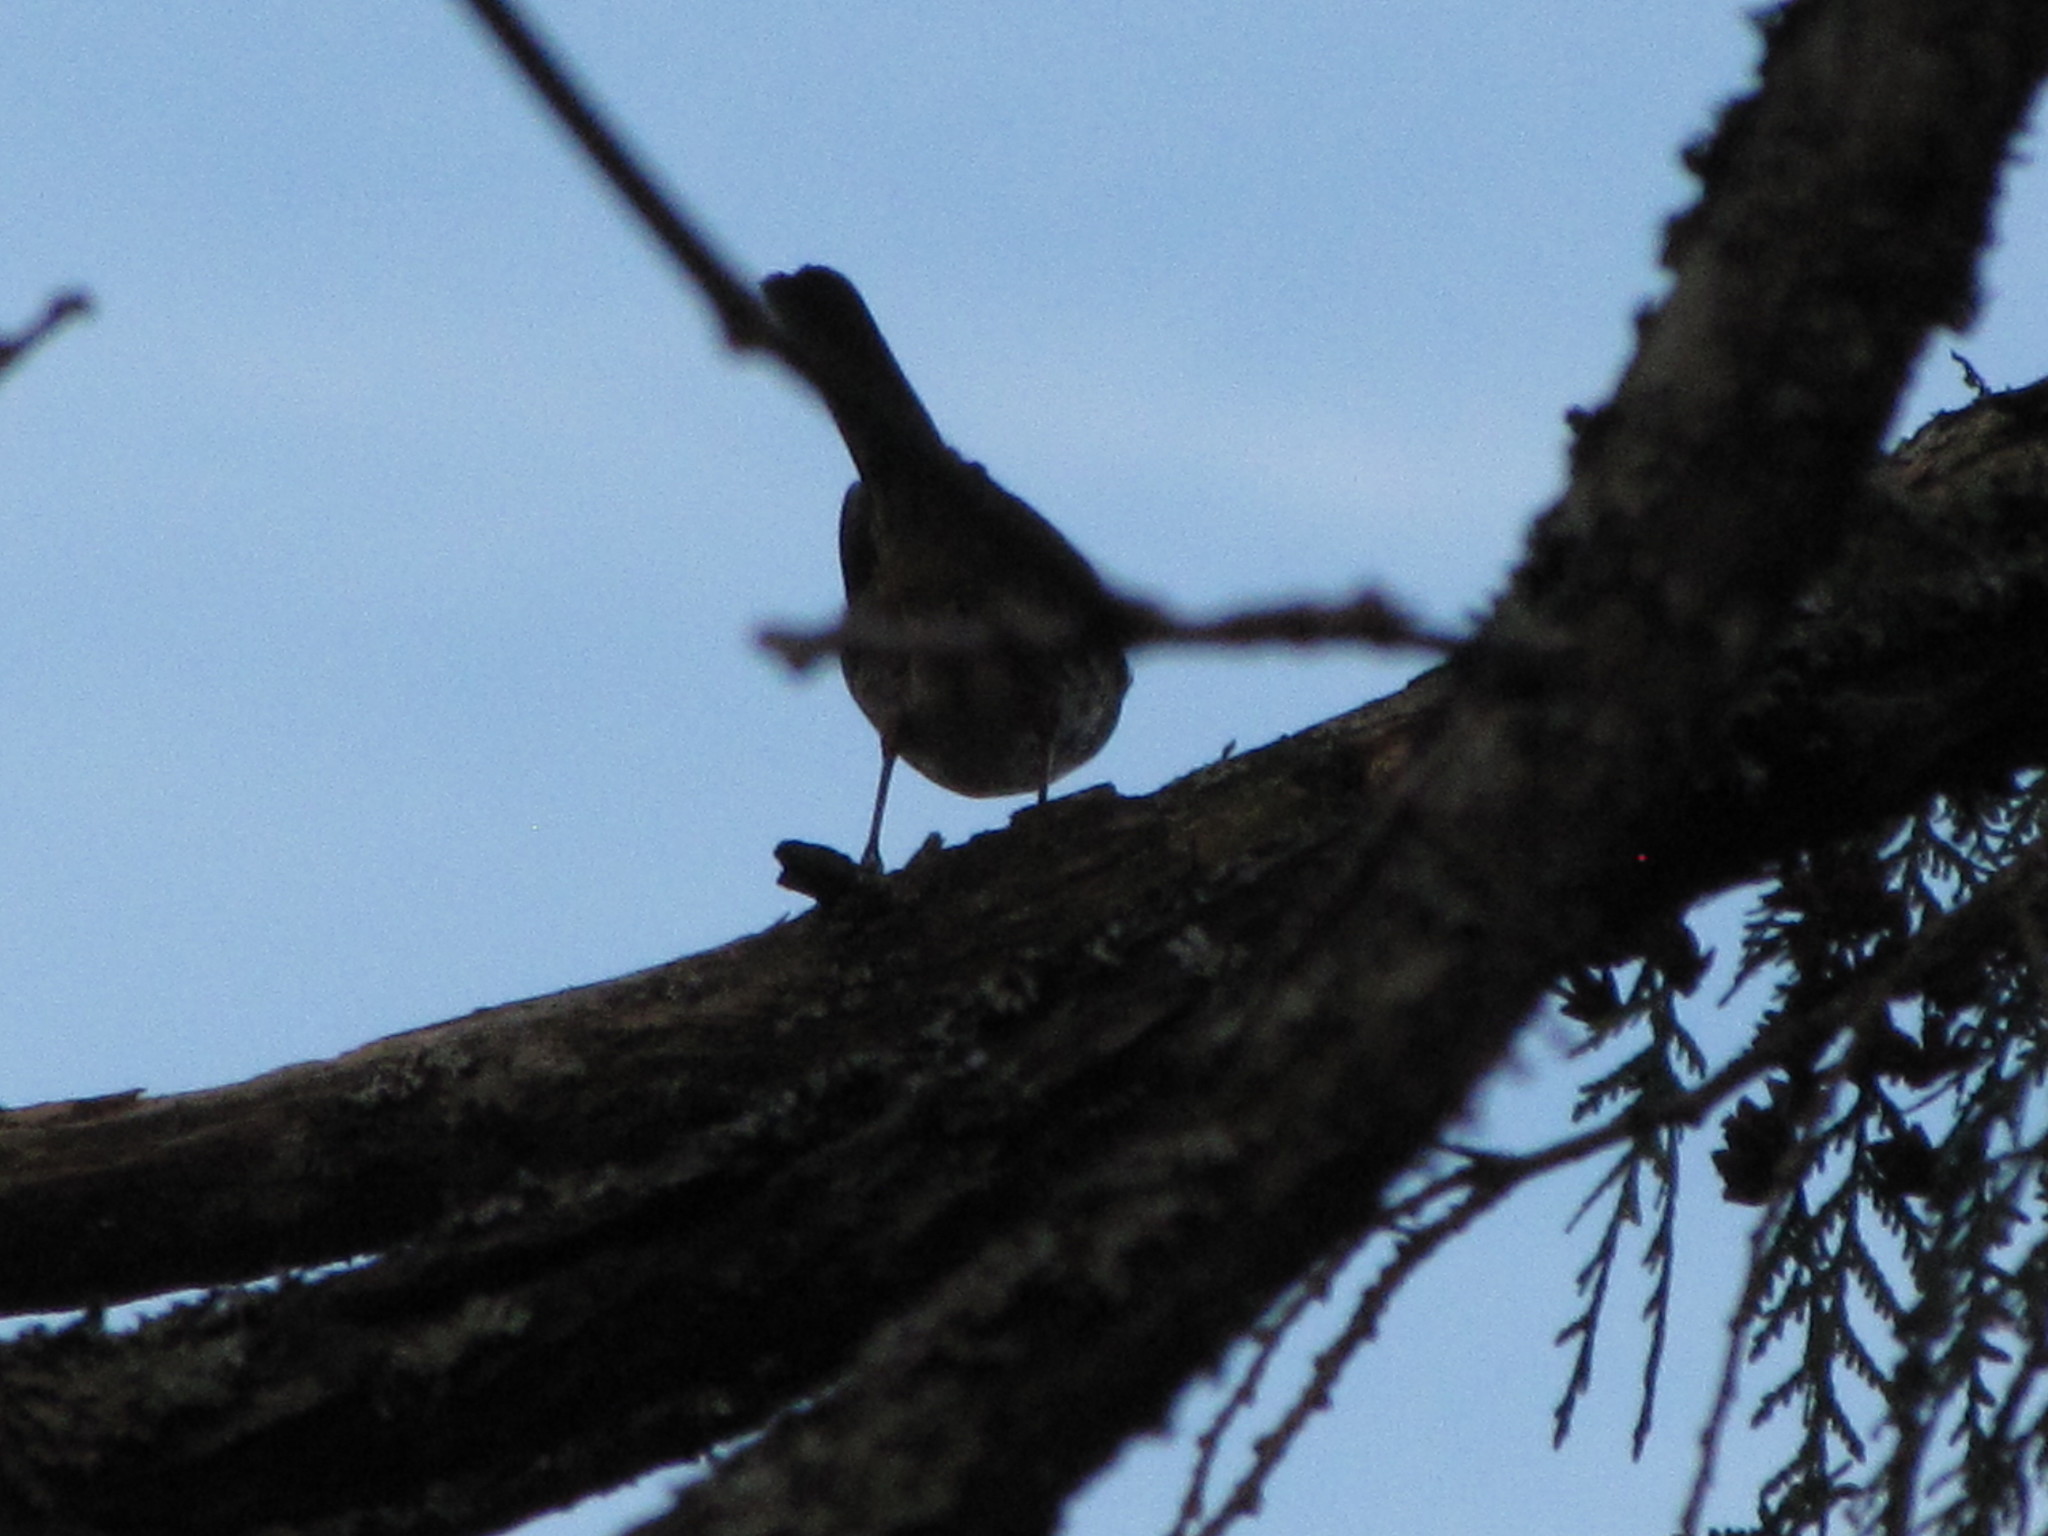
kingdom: Animalia
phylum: Chordata
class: Aves
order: Passeriformes
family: Passerellidae
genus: Passerella
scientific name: Passerella iliaca
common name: Fox sparrow
